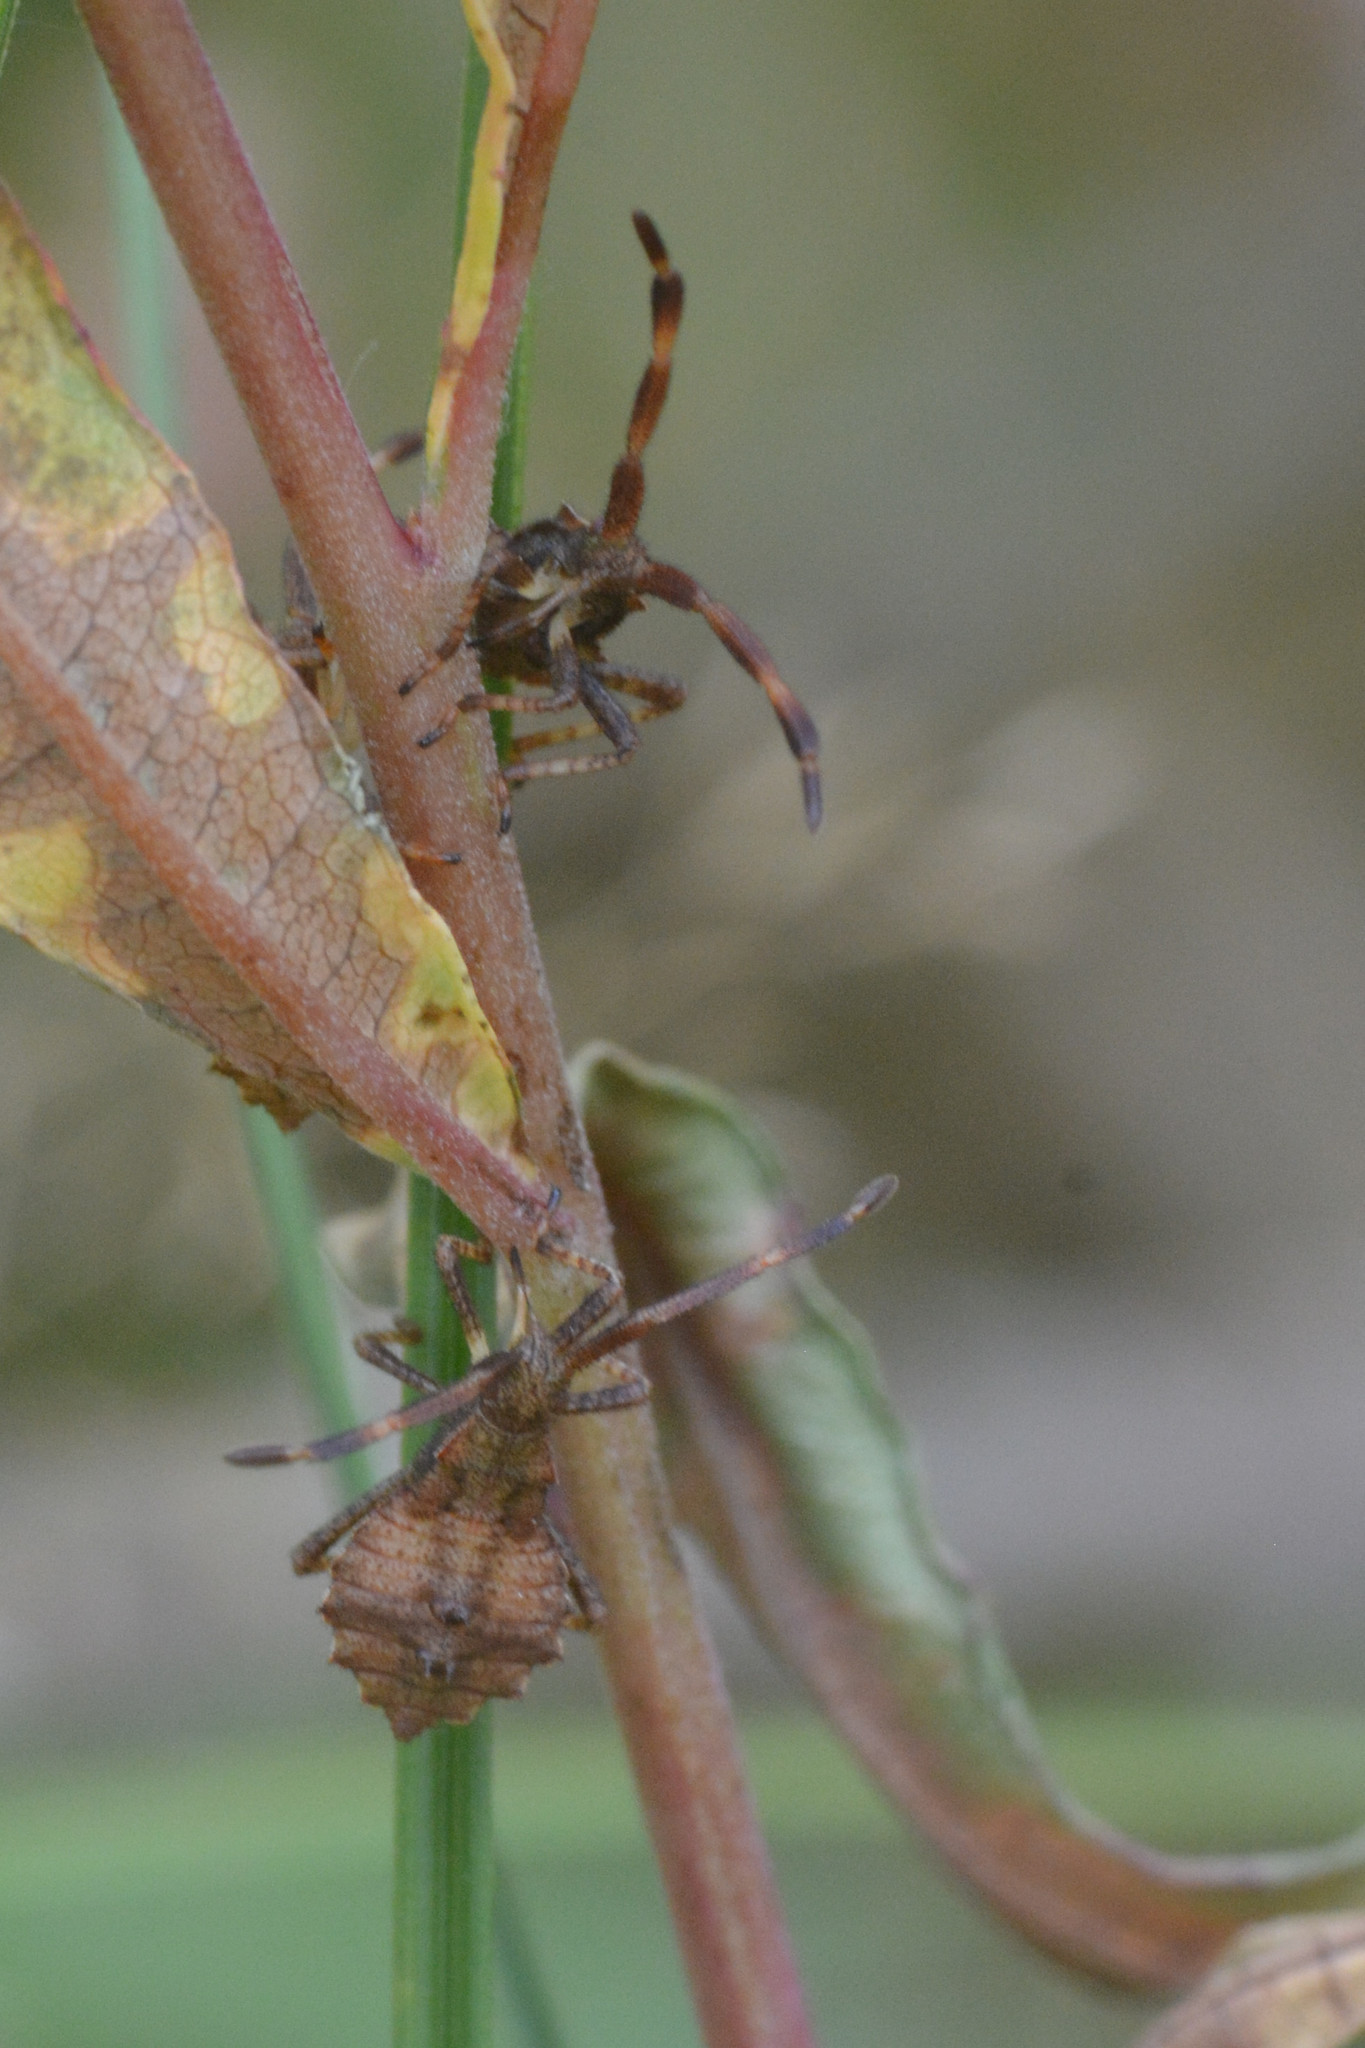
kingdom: Animalia
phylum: Arthropoda
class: Insecta
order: Hemiptera
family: Coreidae
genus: Coreus
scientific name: Coreus marginatus
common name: Dock bug
